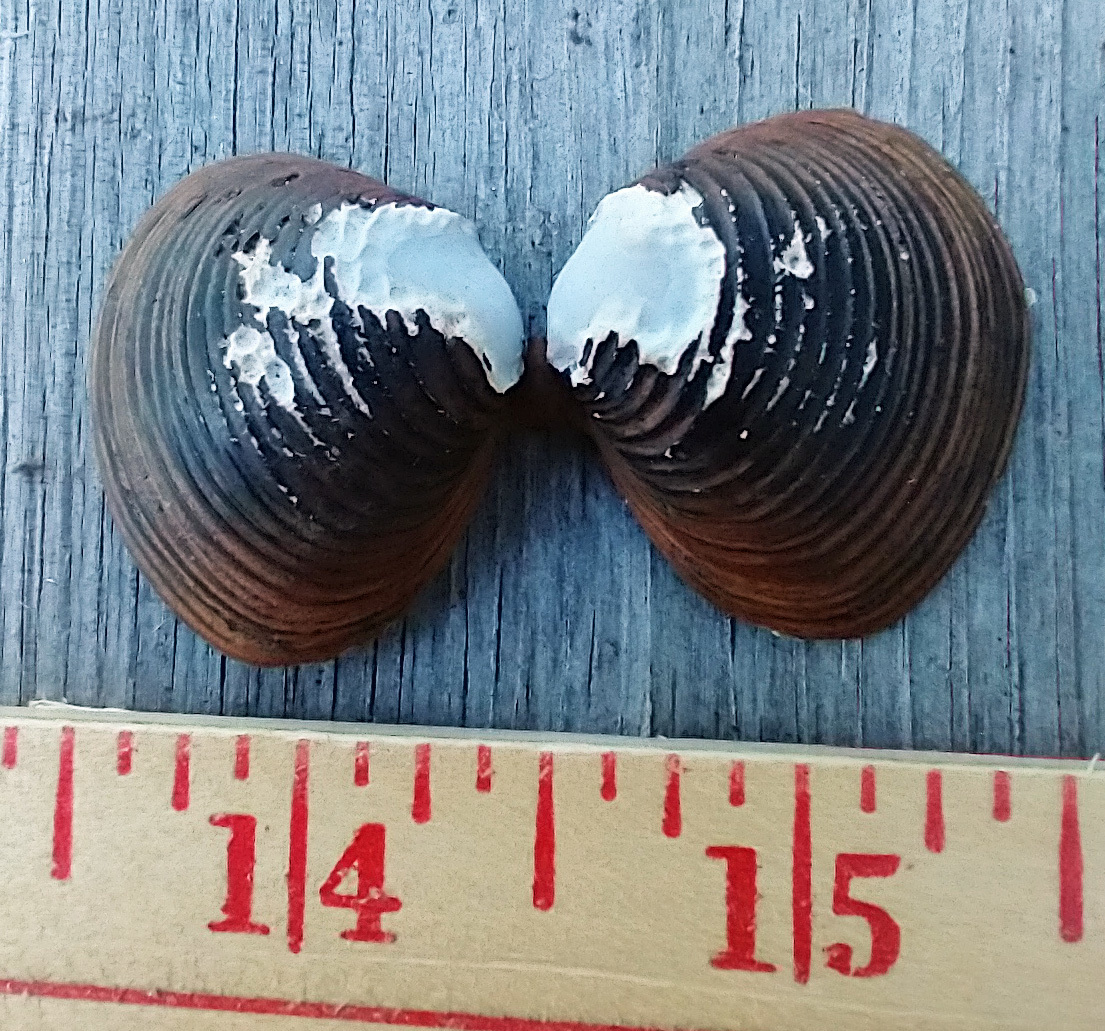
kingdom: Animalia
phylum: Mollusca
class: Bivalvia
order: Venerida
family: Cyrenidae
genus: Corbicula
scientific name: Corbicula fluminea
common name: Asian clam
